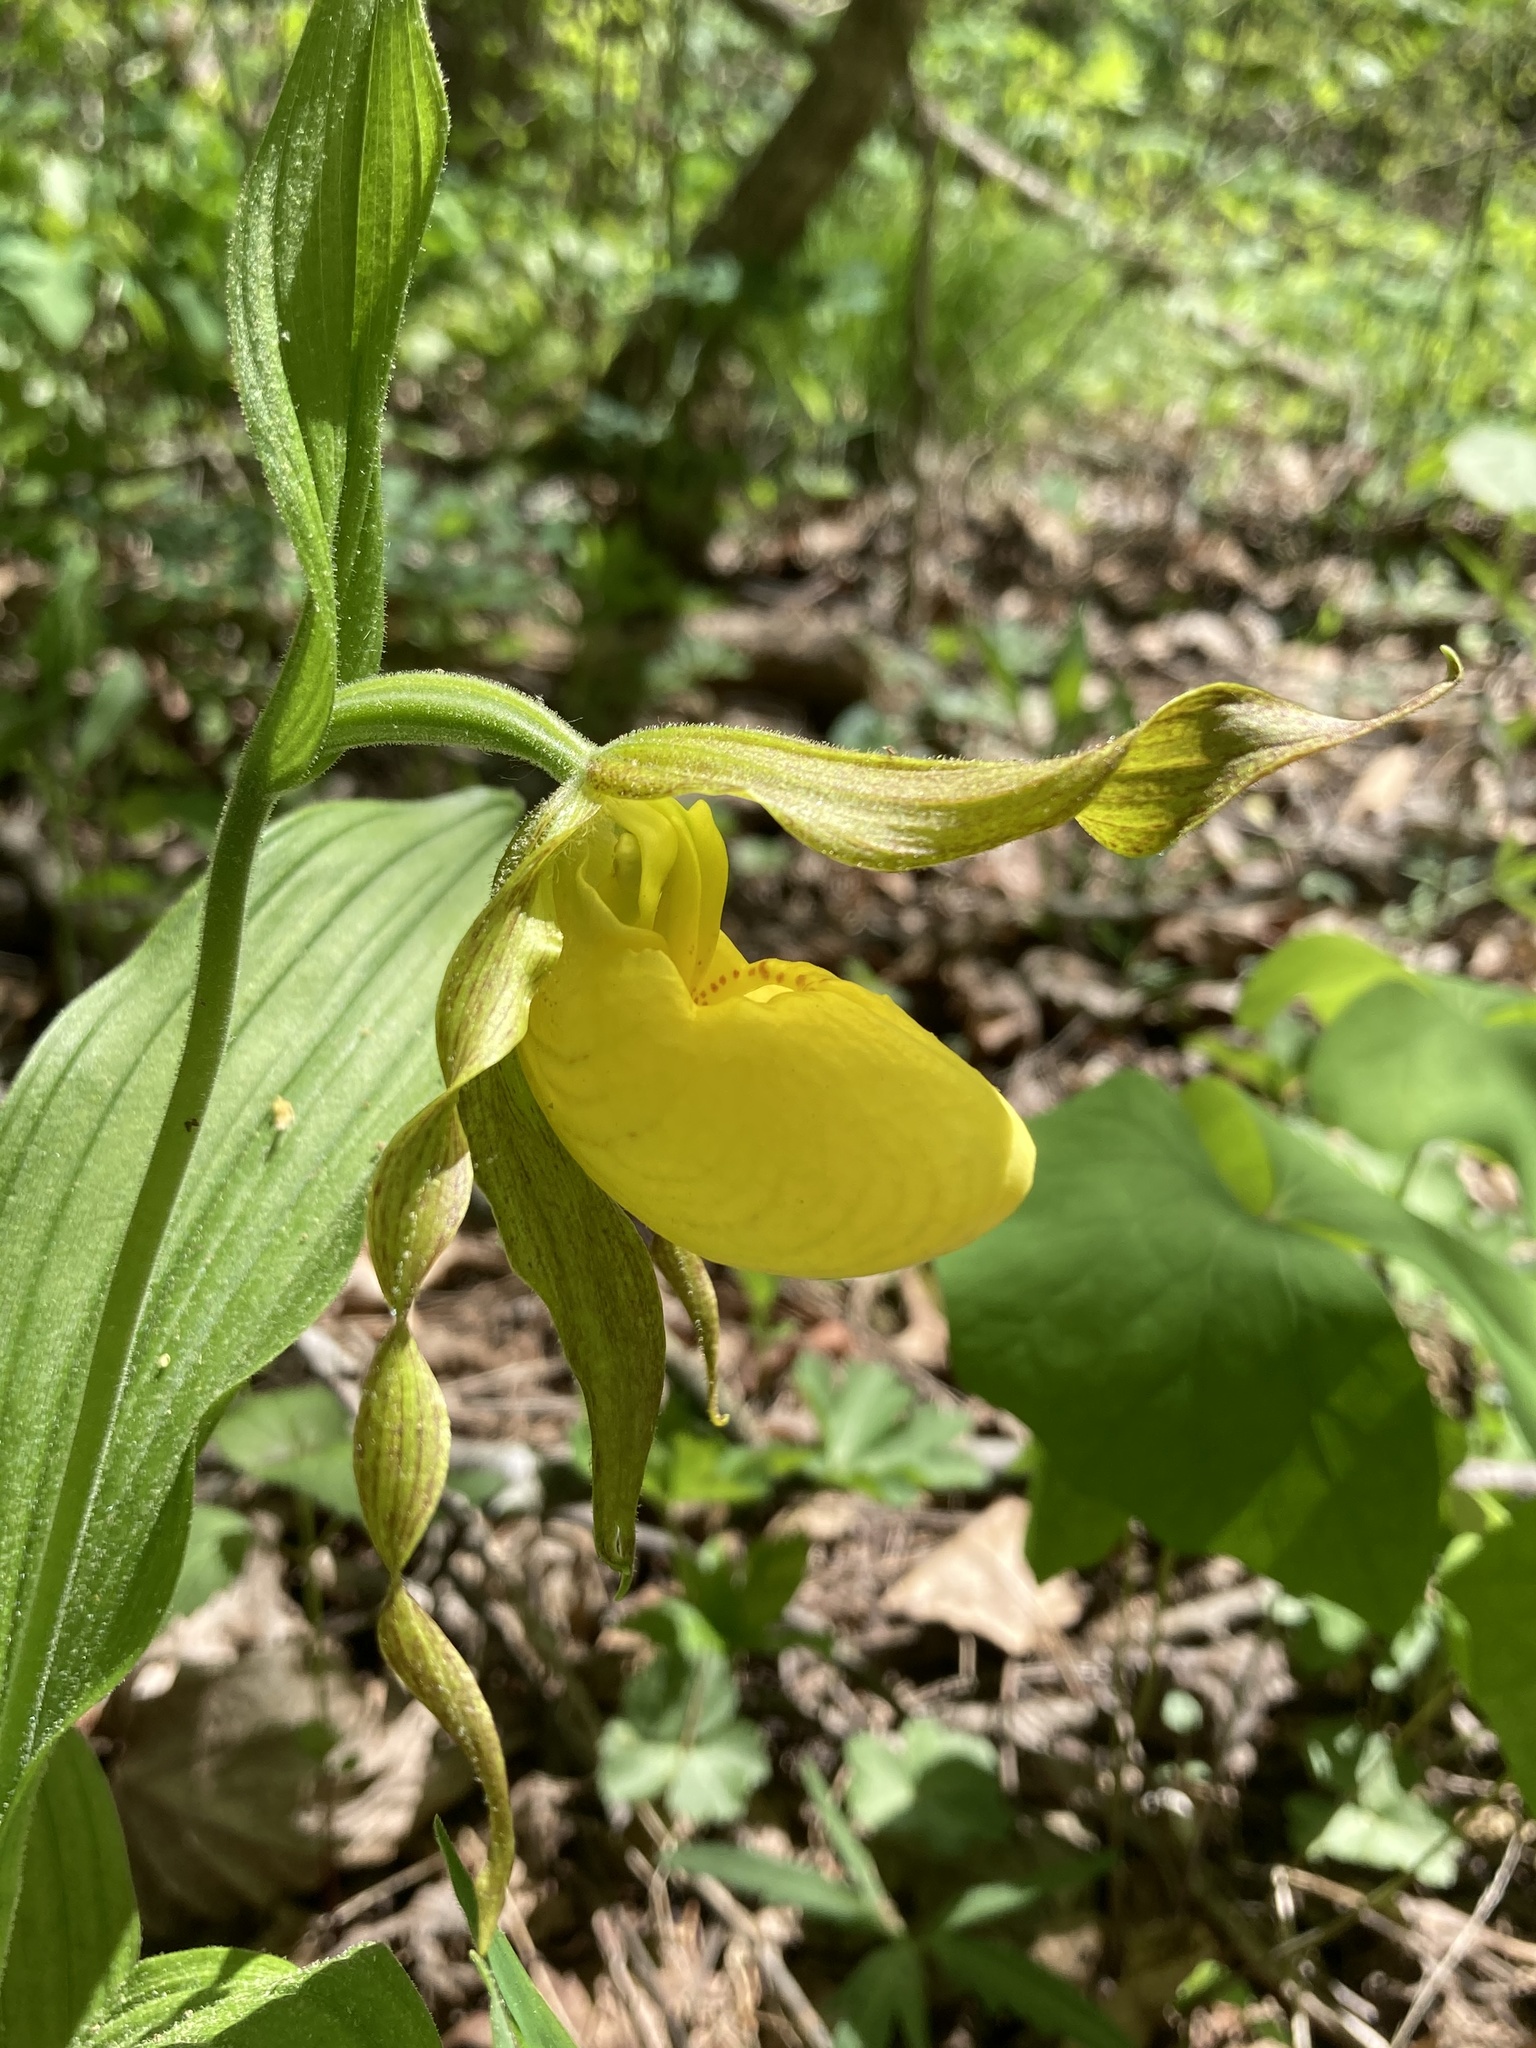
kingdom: Plantae
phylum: Tracheophyta
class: Liliopsida
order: Asparagales
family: Orchidaceae
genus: Cypripedium
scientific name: Cypripedium parviflorum
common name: American yellow lady's-slipper
